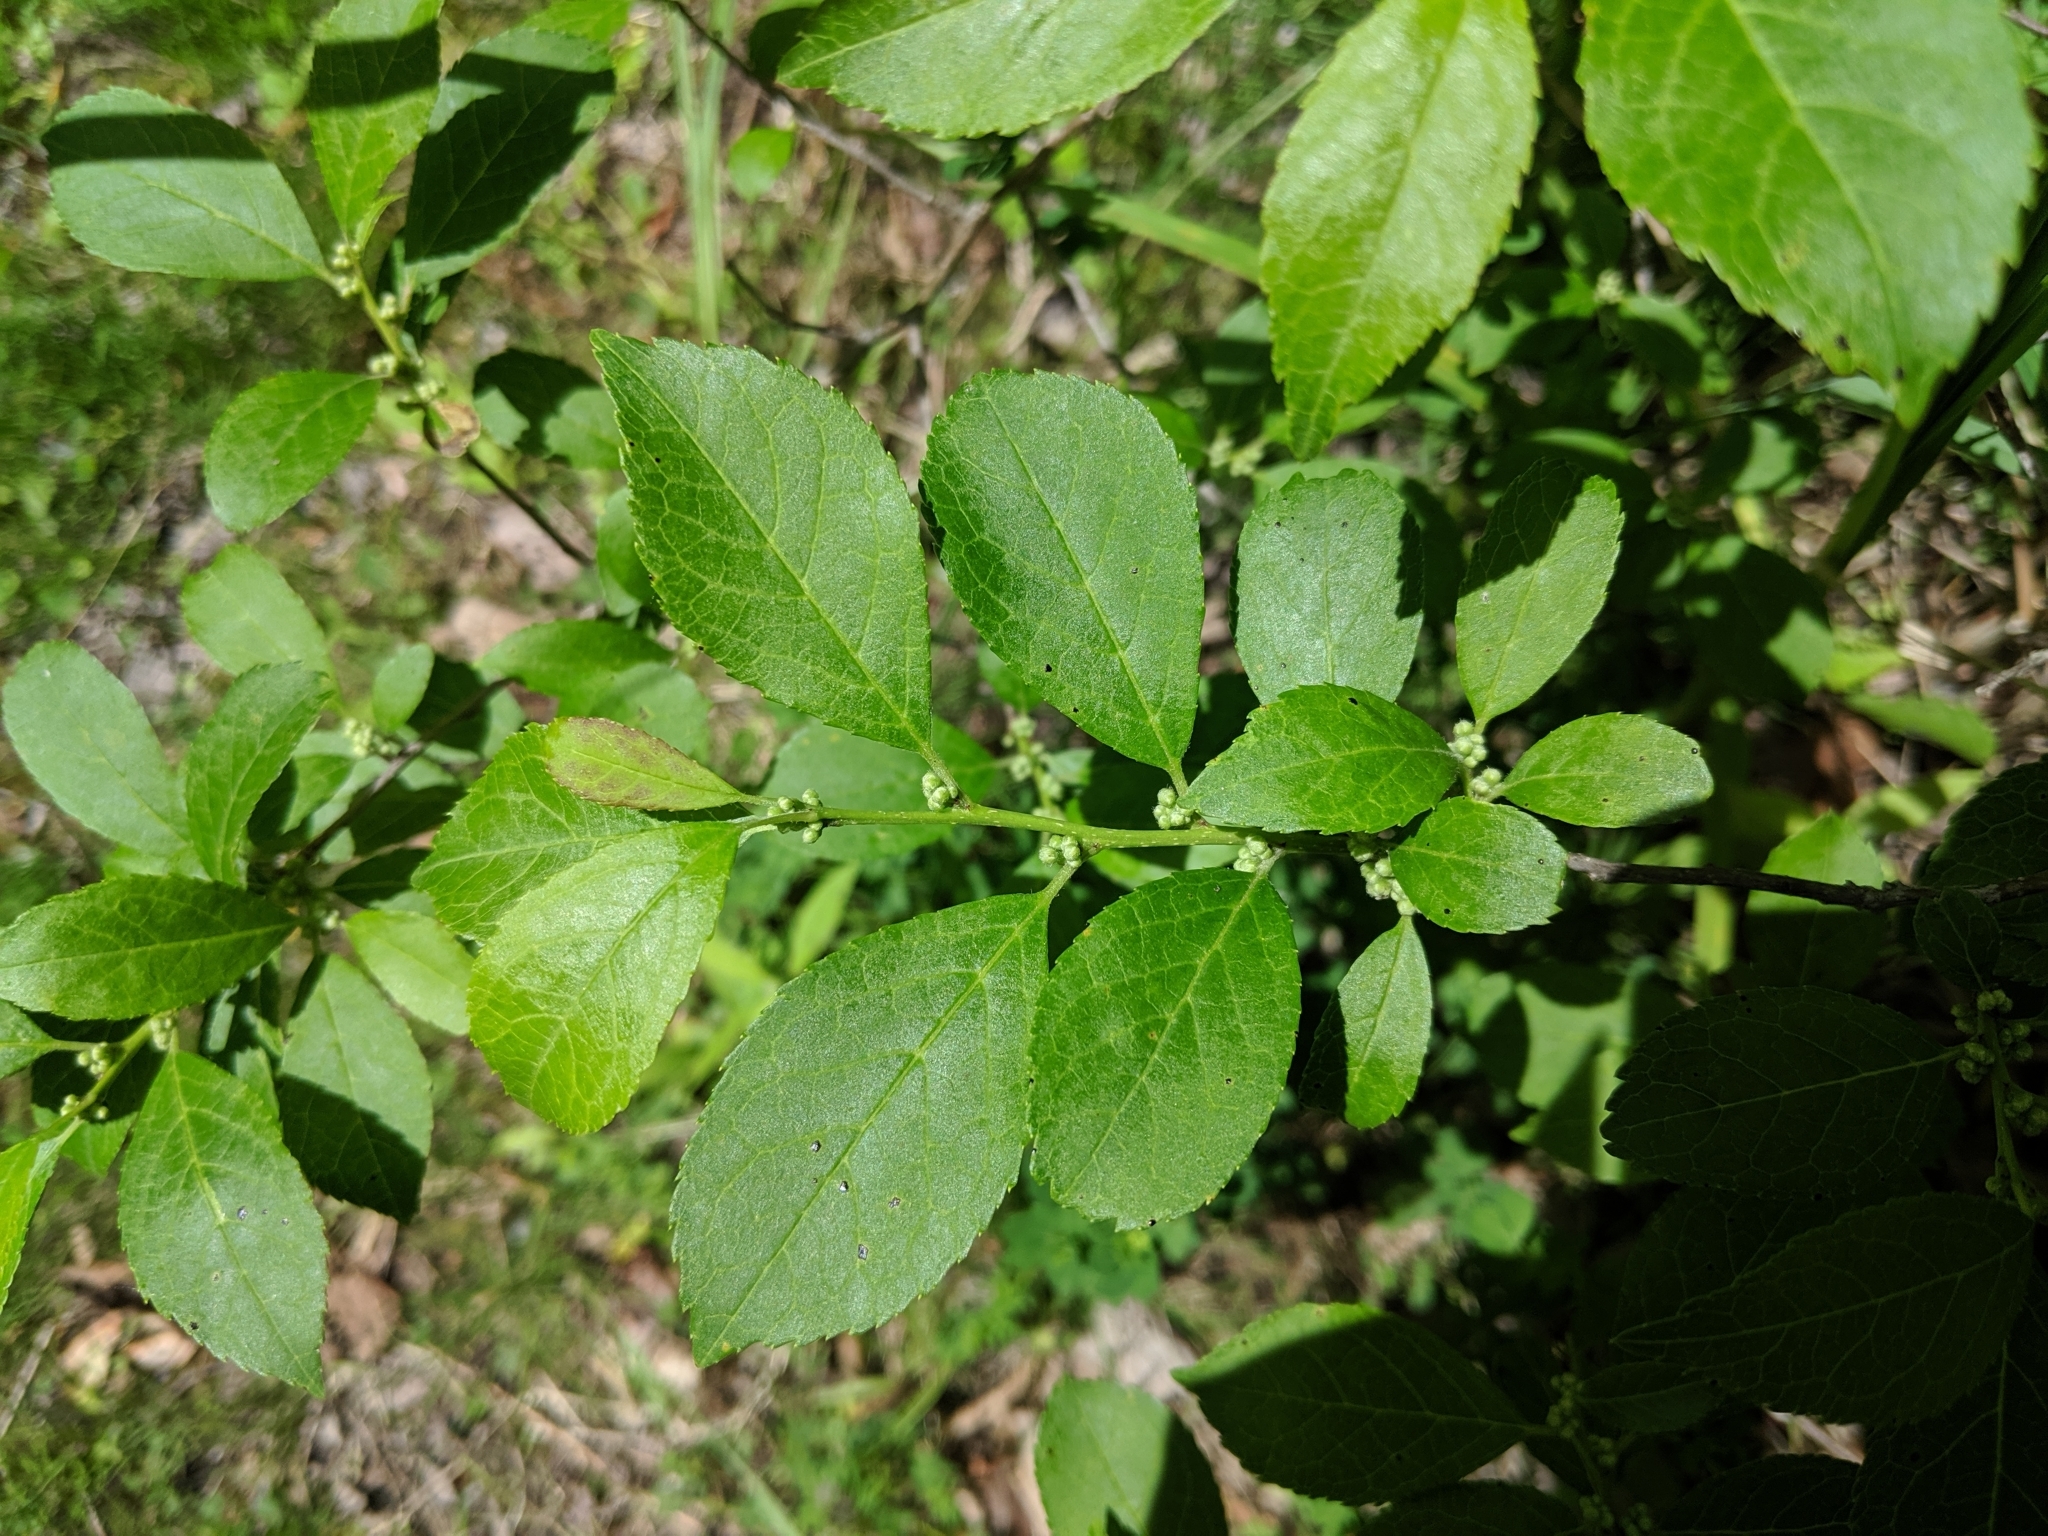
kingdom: Plantae
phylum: Tracheophyta
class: Magnoliopsida
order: Aquifoliales
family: Aquifoliaceae
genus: Ilex
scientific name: Ilex verticillata
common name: Virginia winterberry
